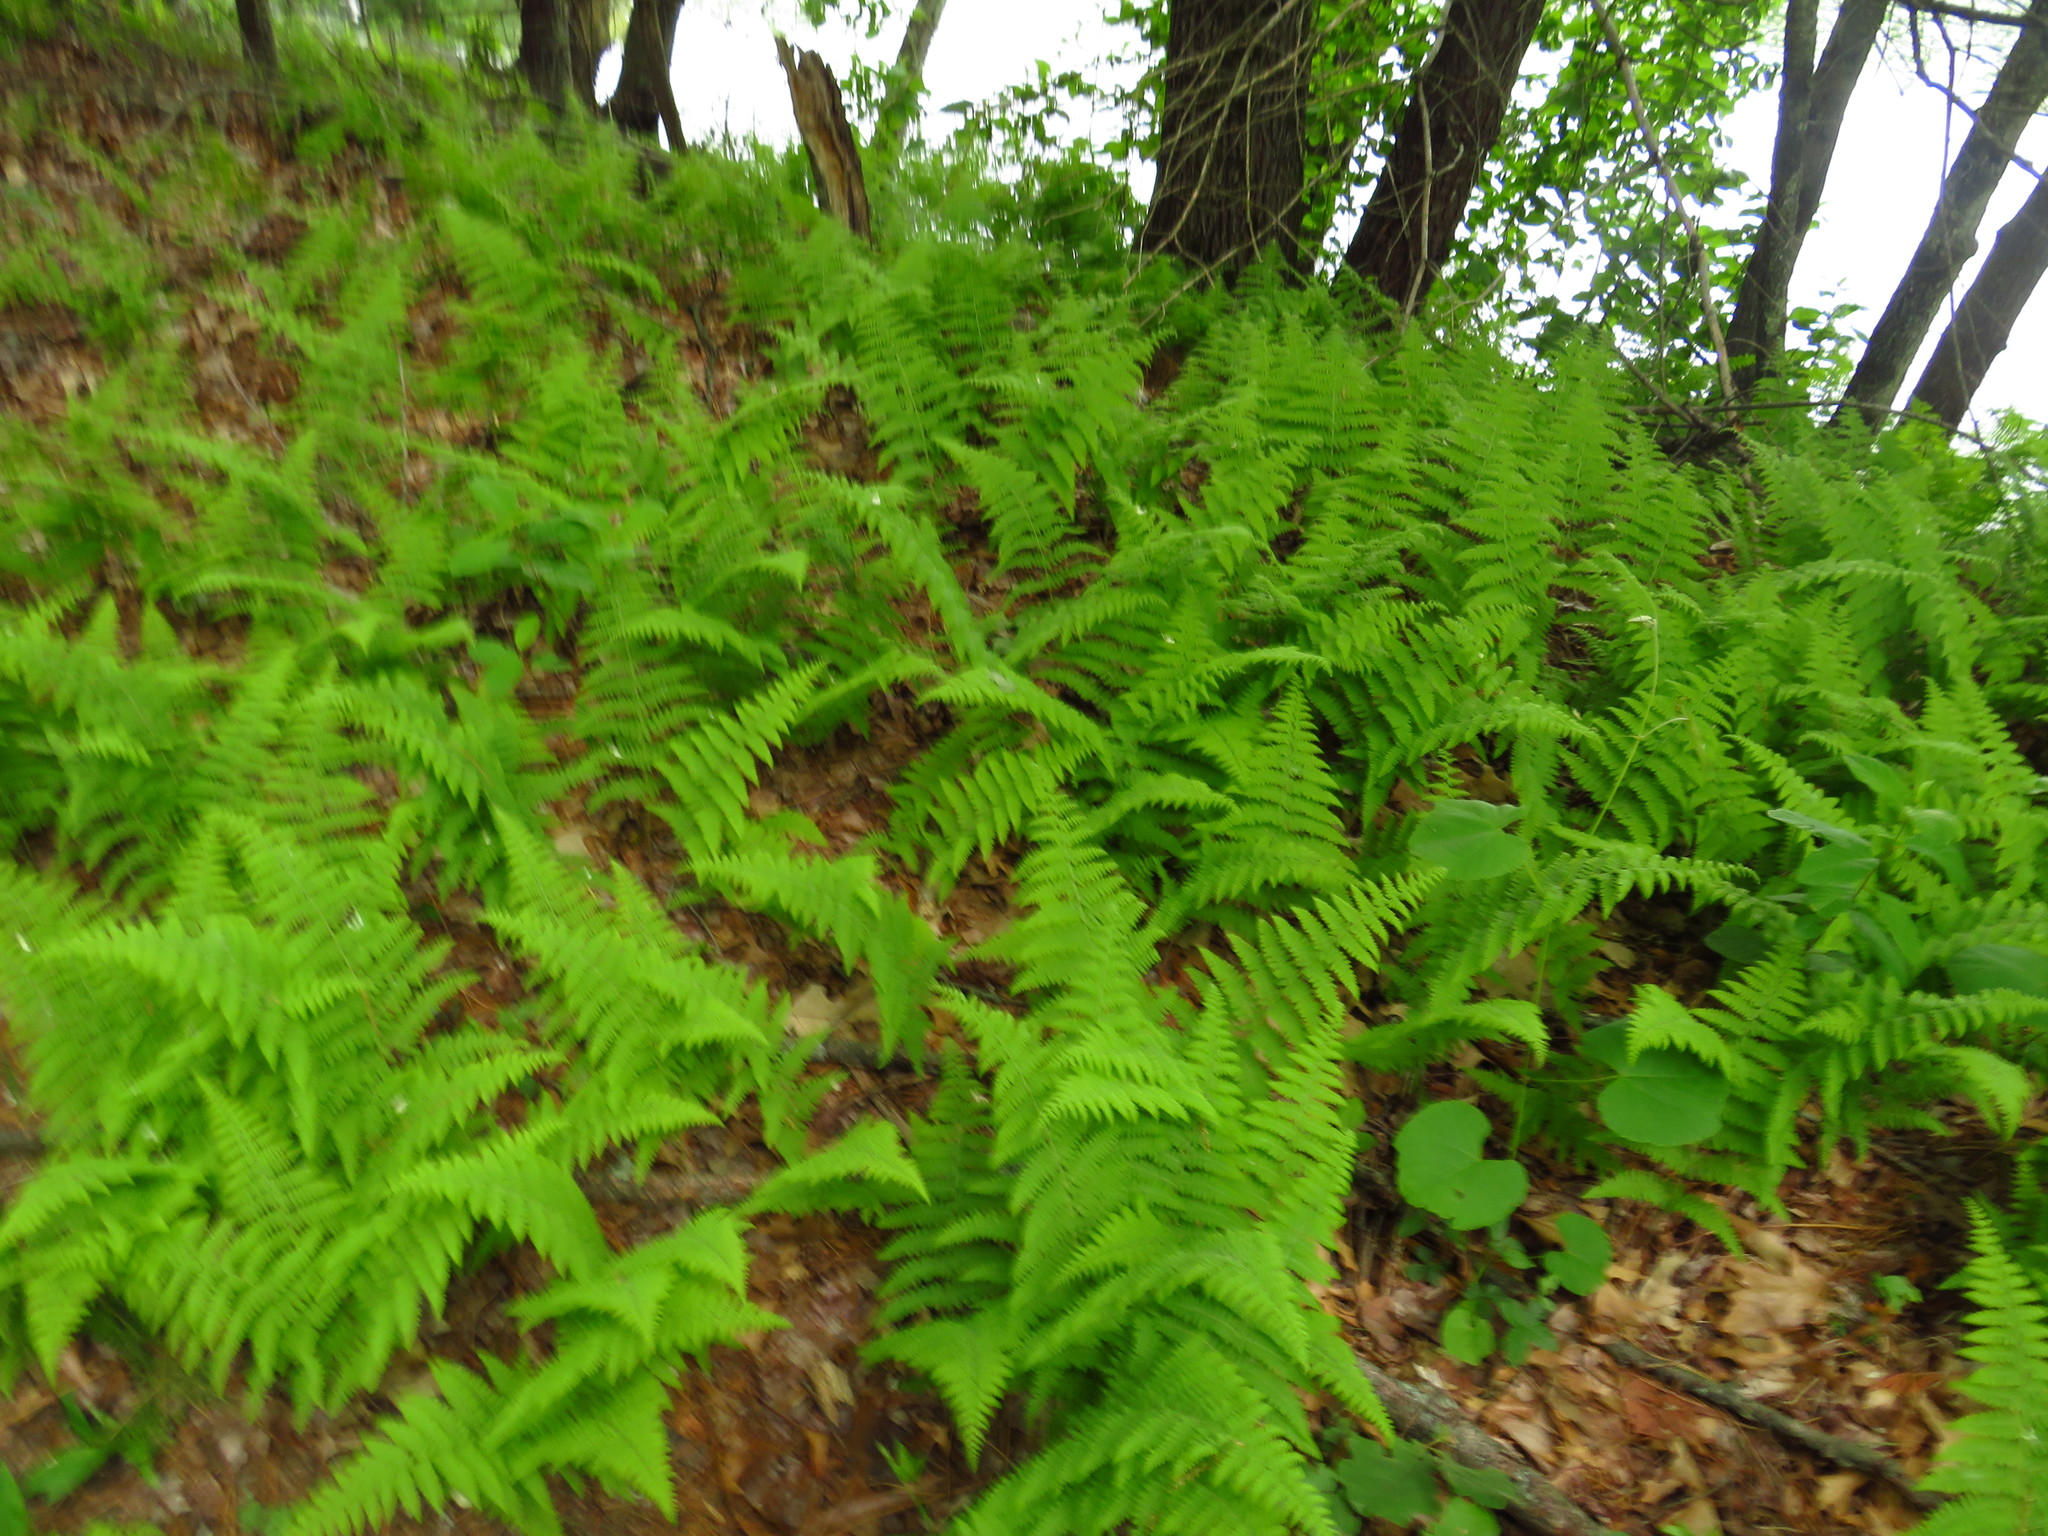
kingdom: Plantae
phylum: Tracheophyta
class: Polypodiopsida
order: Polypodiales
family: Dennstaedtiaceae
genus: Sitobolium
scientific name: Sitobolium punctilobum
